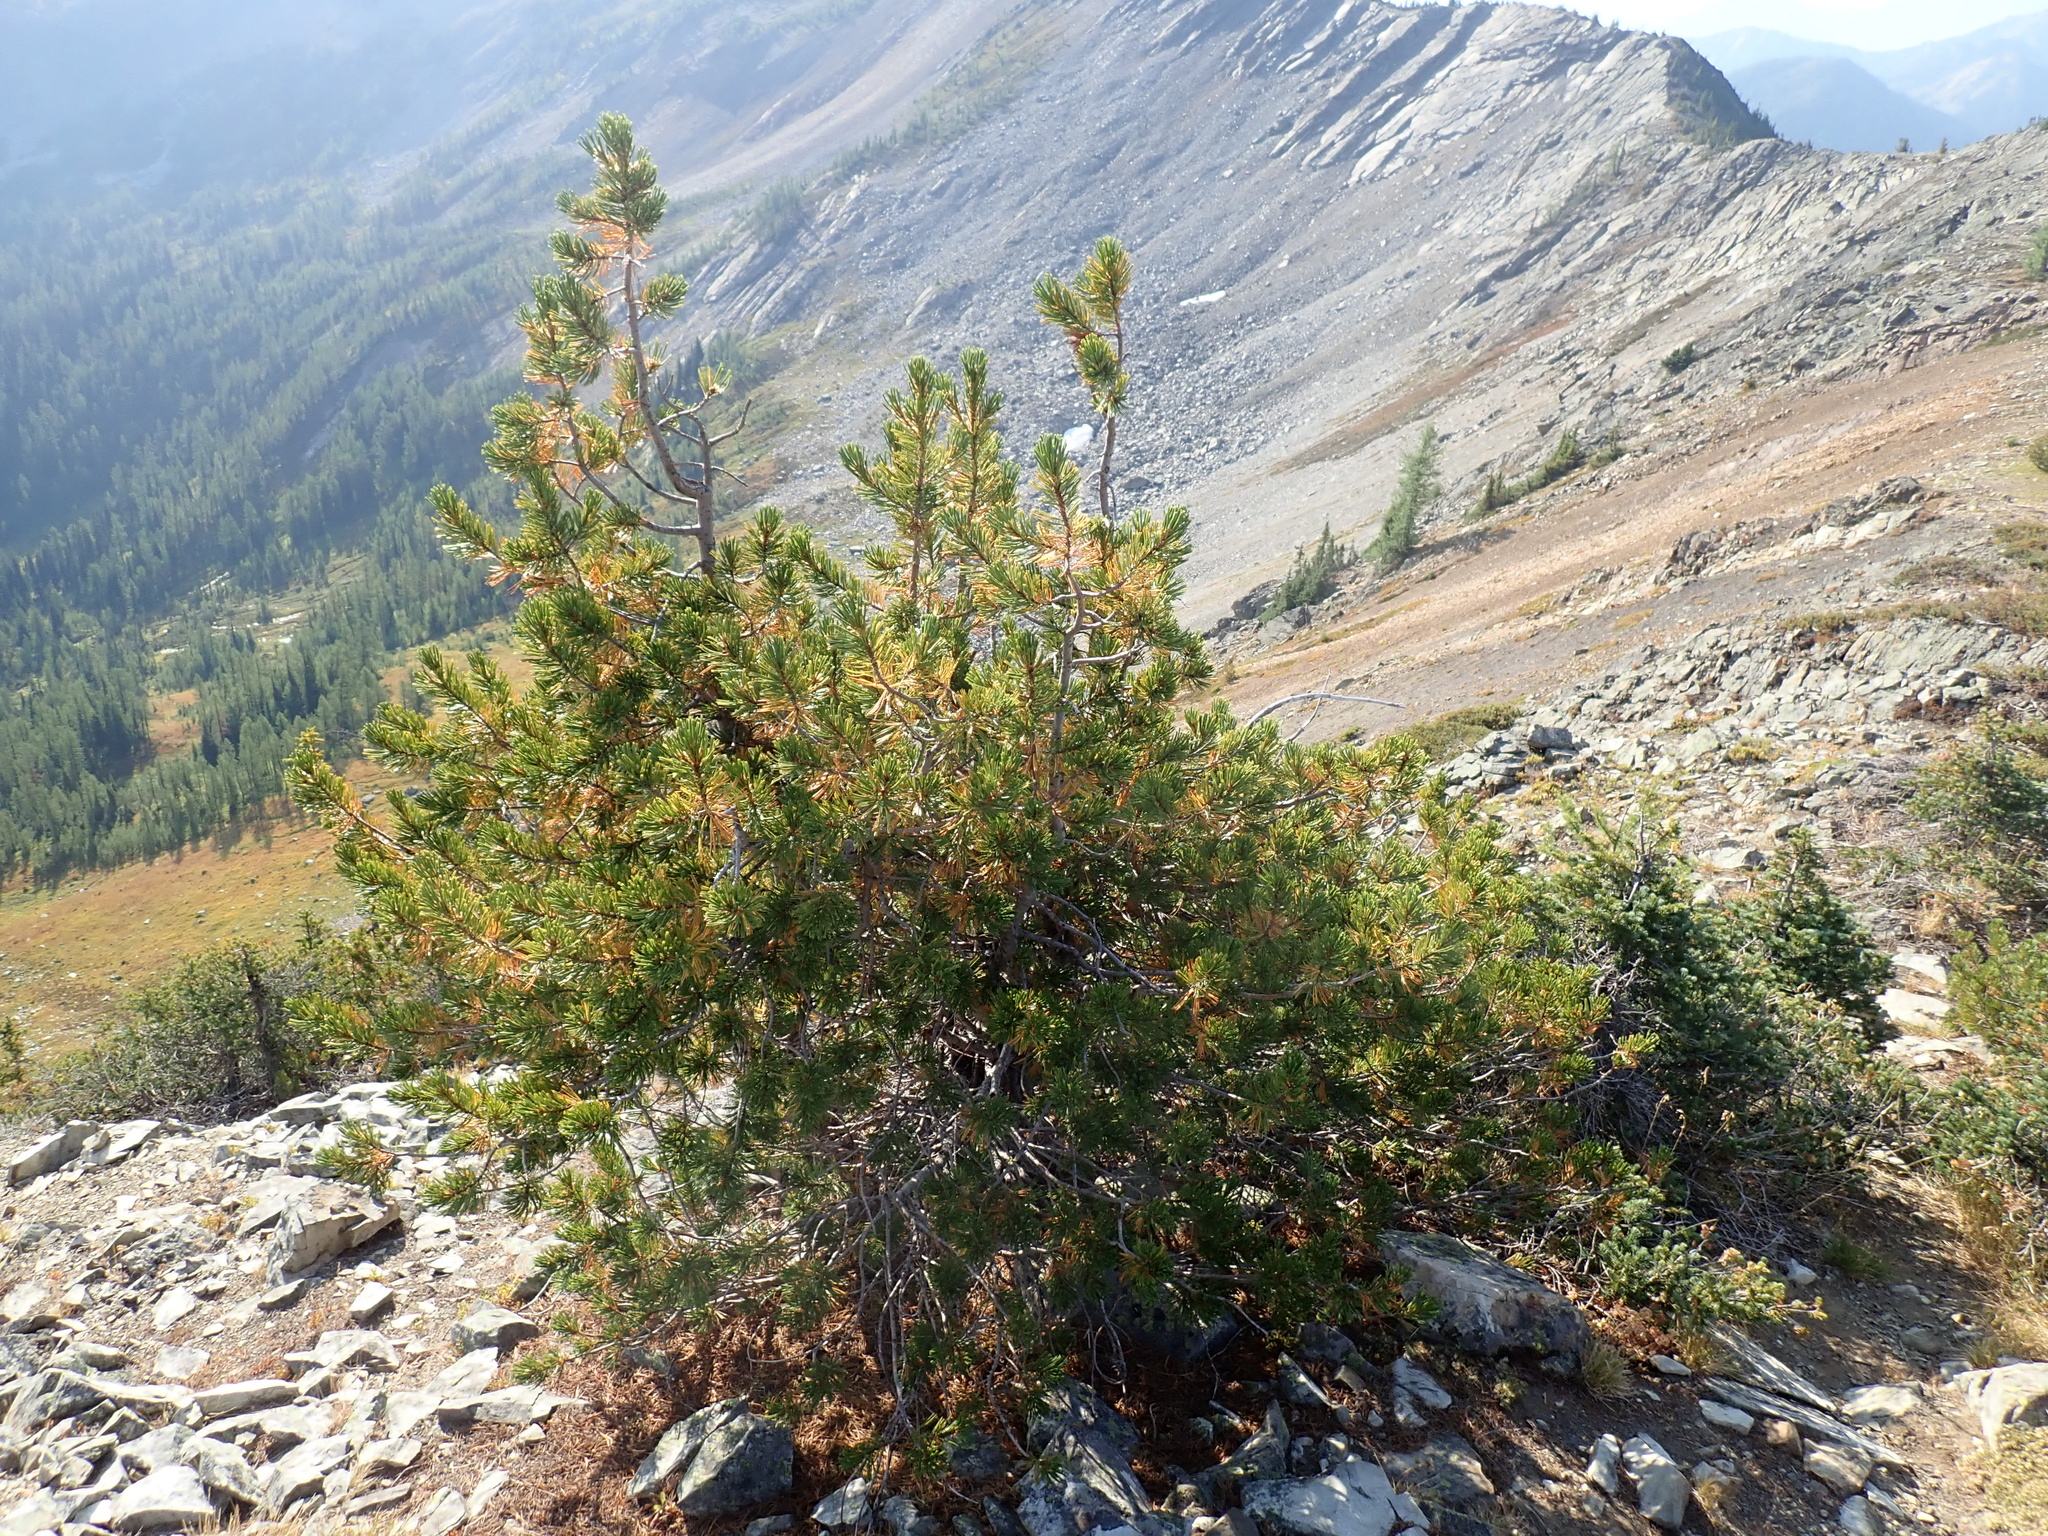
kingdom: Plantae
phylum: Tracheophyta
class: Pinopsida
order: Pinales
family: Pinaceae
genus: Pinus
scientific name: Pinus albicaulis
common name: Whitebark pine
